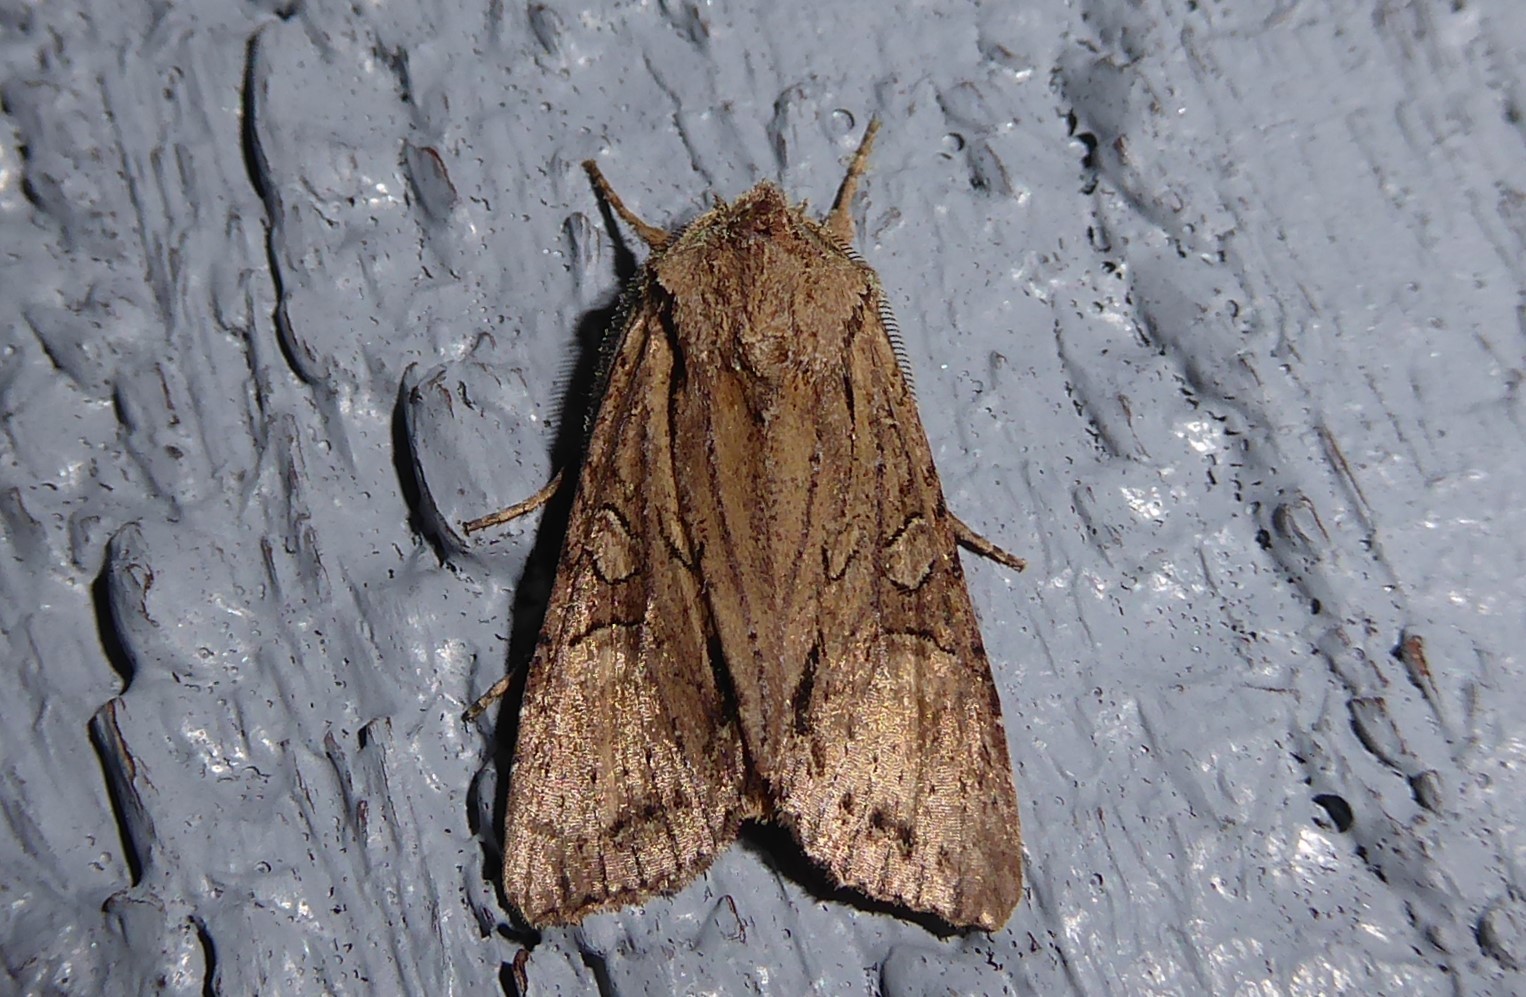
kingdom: Animalia
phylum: Arthropoda
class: Insecta
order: Lepidoptera
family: Noctuidae
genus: Ichneutica
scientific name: Ichneutica
